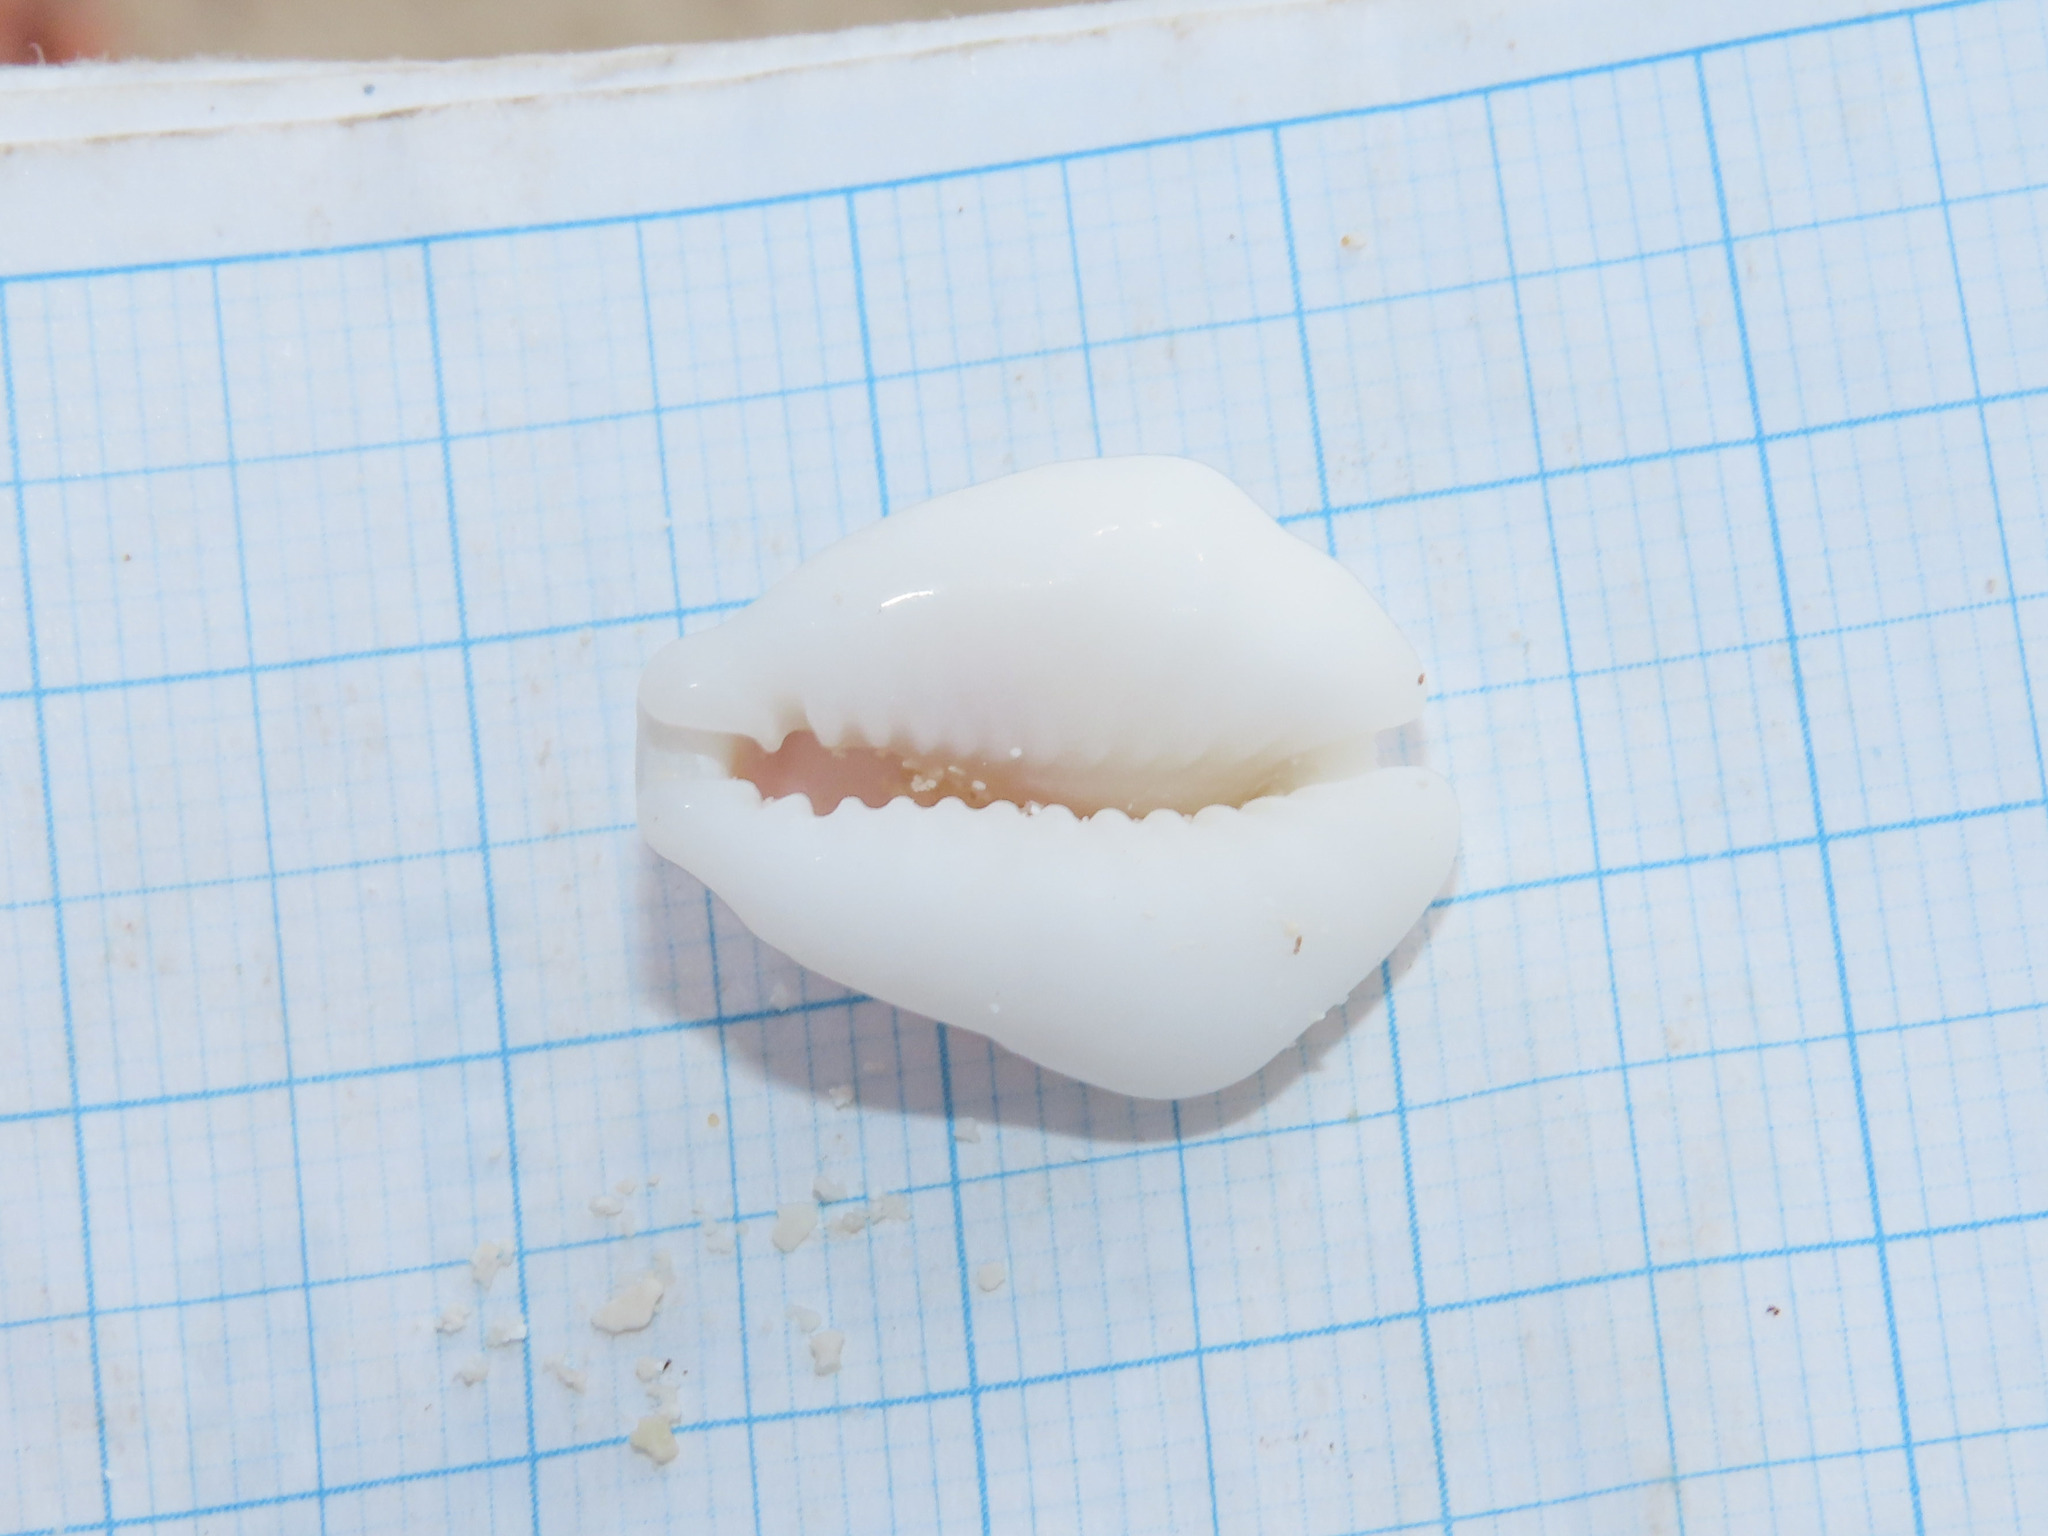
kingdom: Animalia
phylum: Mollusca
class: Gastropoda
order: Littorinimorpha
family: Cypraeidae
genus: Monetaria
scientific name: Monetaria moneta
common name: Money cowrie
